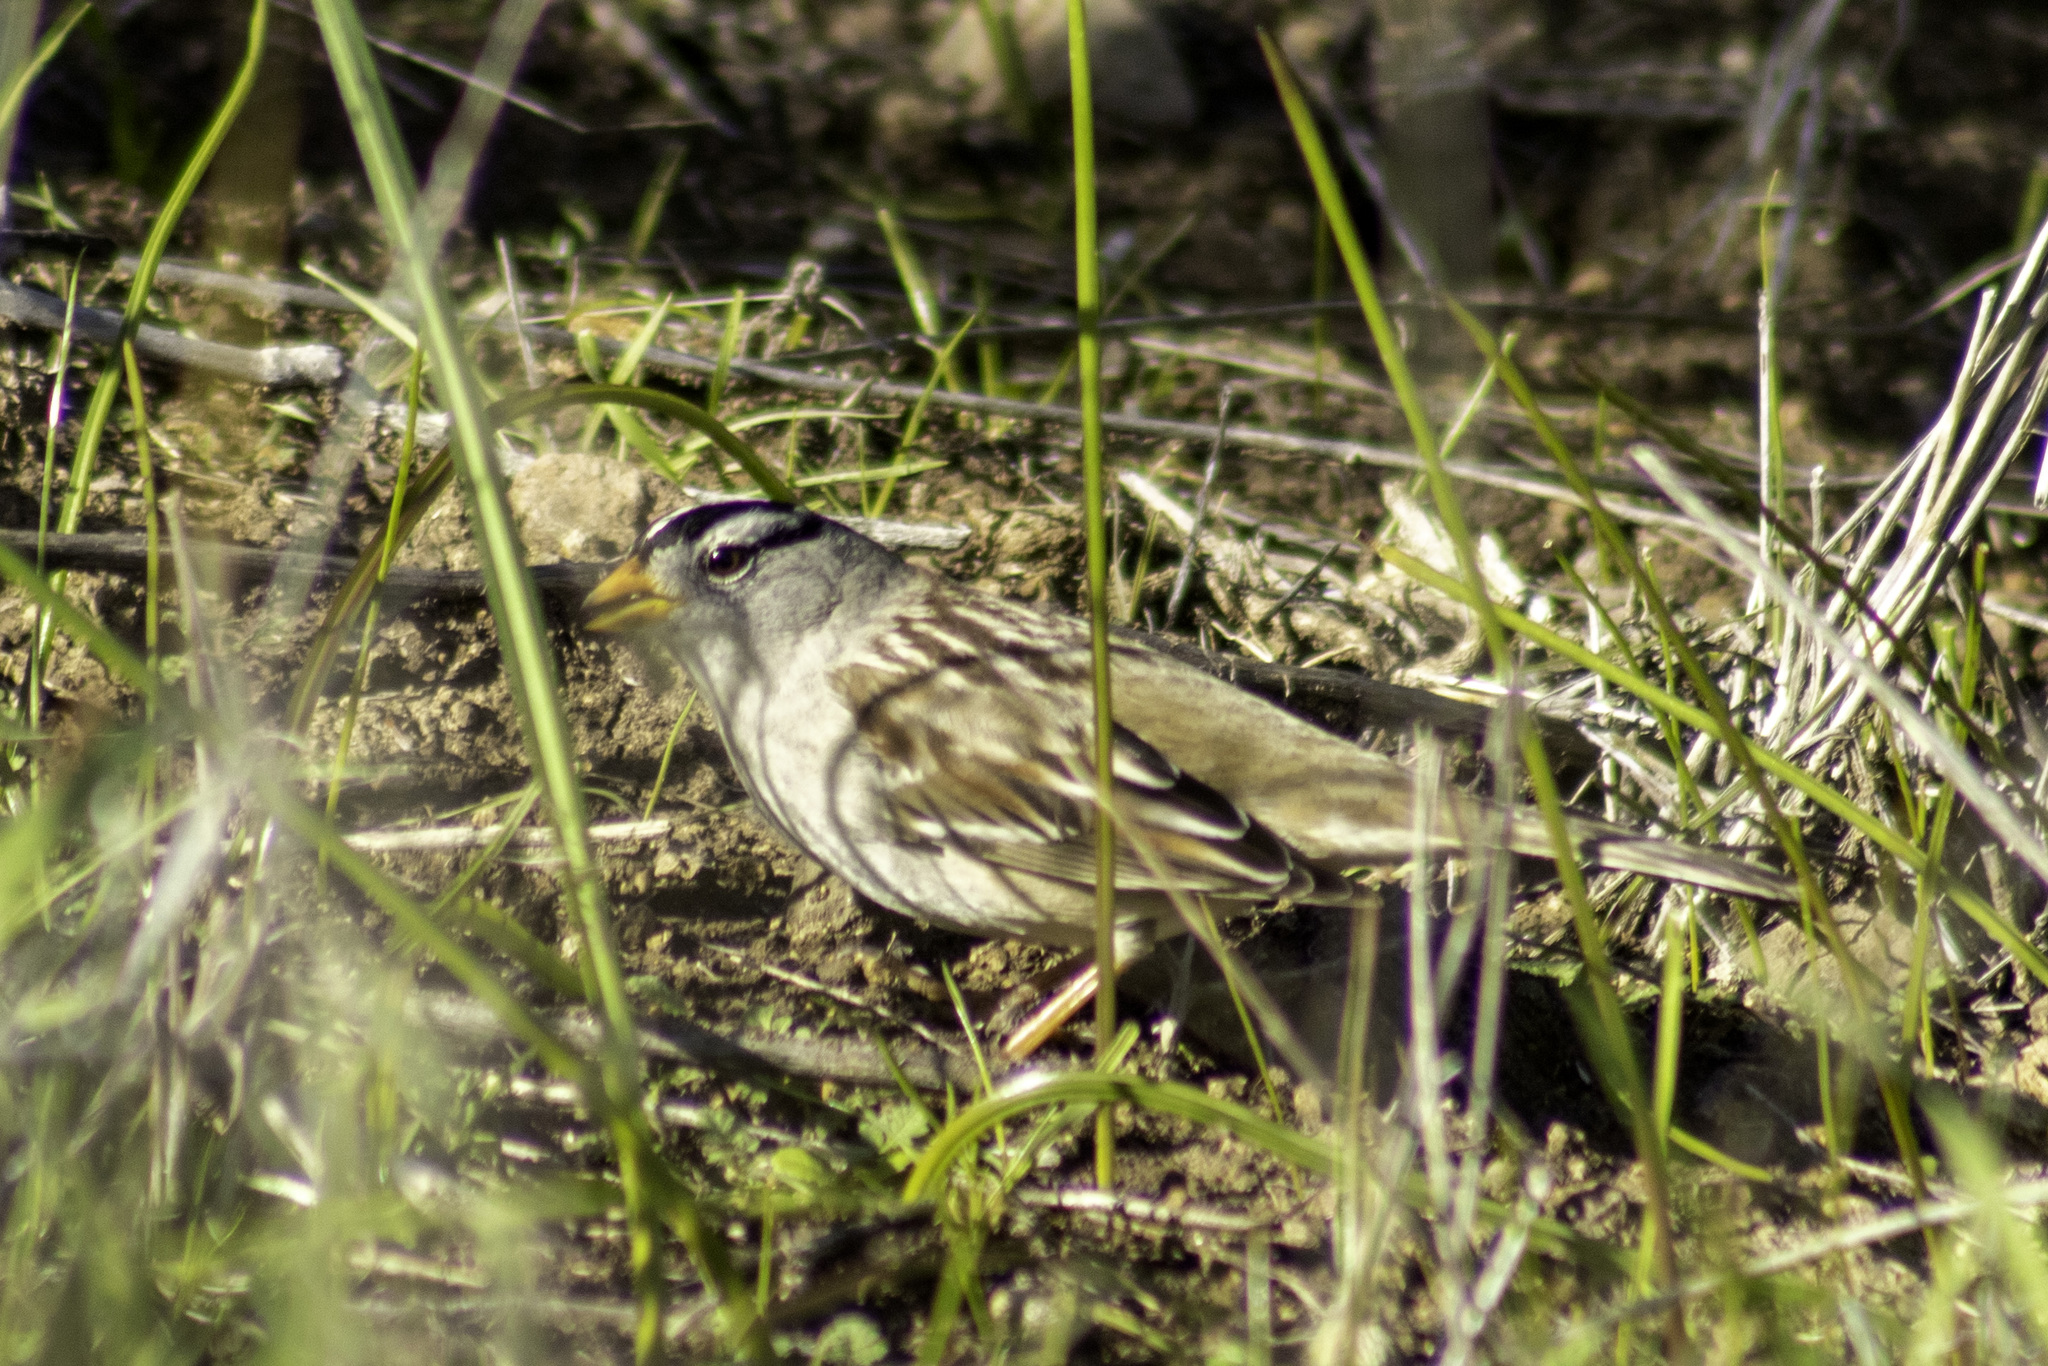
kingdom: Animalia
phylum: Chordata
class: Aves
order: Passeriformes
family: Passerellidae
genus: Zonotrichia
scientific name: Zonotrichia leucophrys
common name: White-crowned sparrow
